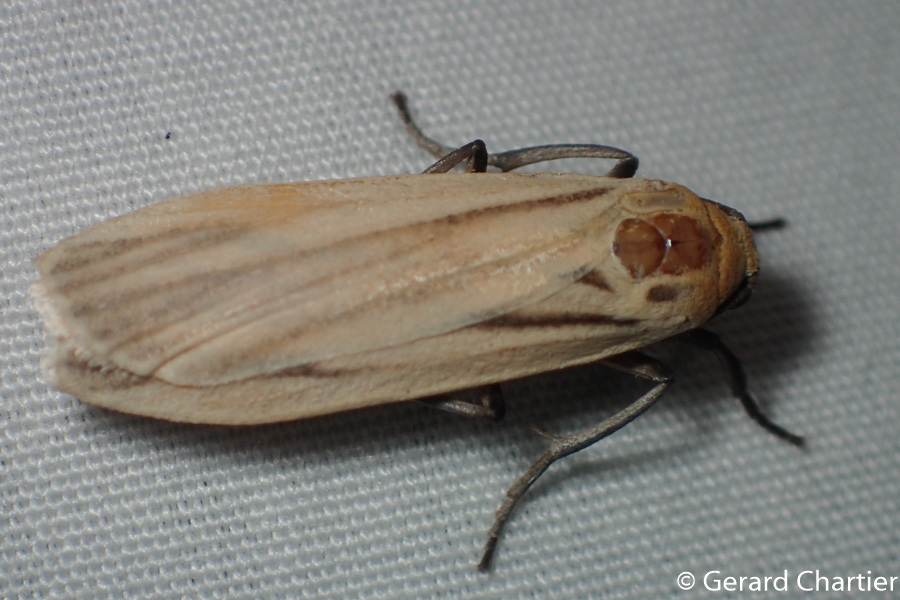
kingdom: Animalia
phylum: Arthropoda
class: Insecta
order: Lepidoptera
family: Erebidae
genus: Tigrioides
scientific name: Tigrioides leucanioides
